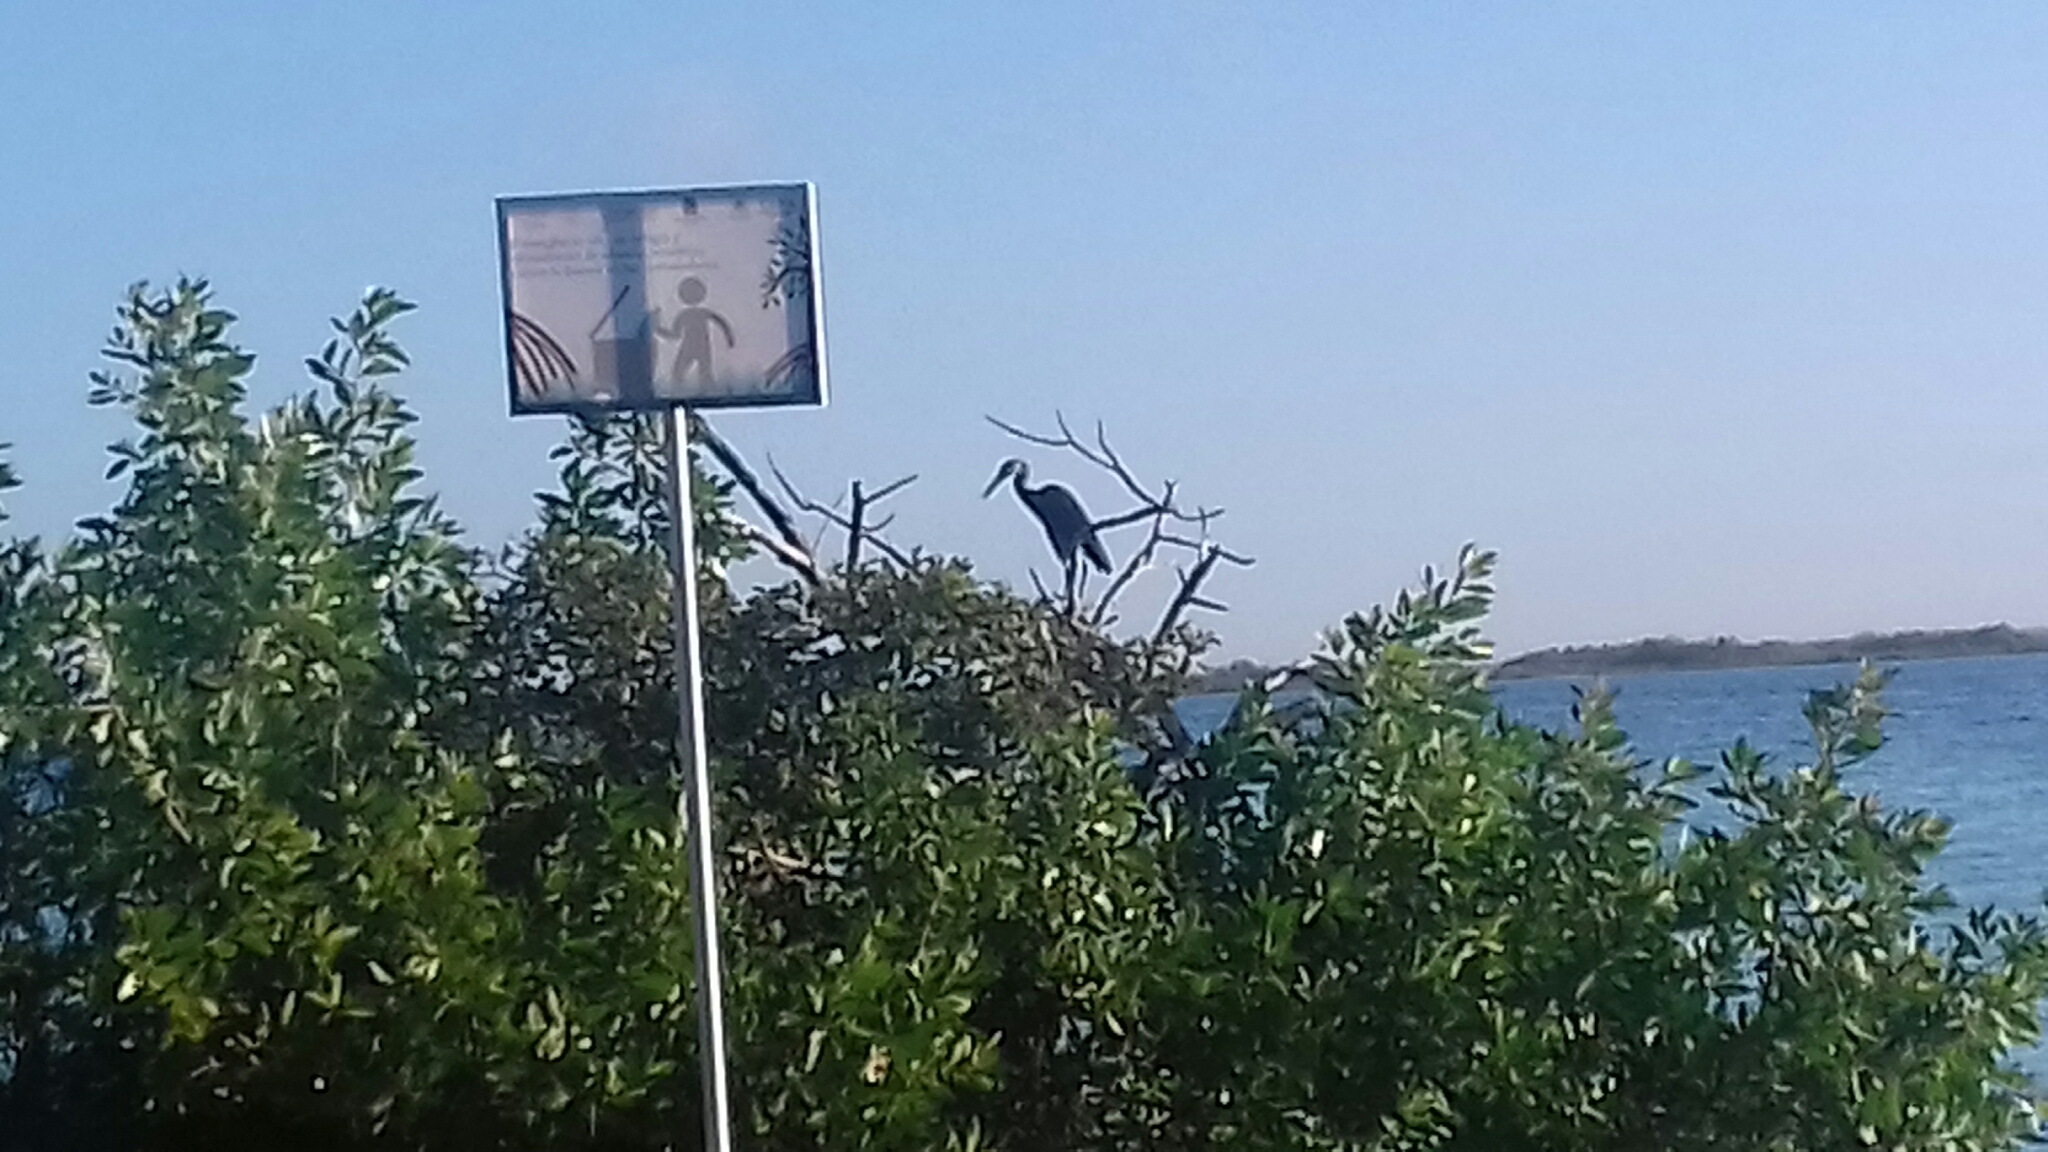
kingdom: Animalia
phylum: Chordata
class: Aves
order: Pelecaniformes
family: Ardeidae
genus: Ardea
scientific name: Ardea herodias
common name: Great blue heron
